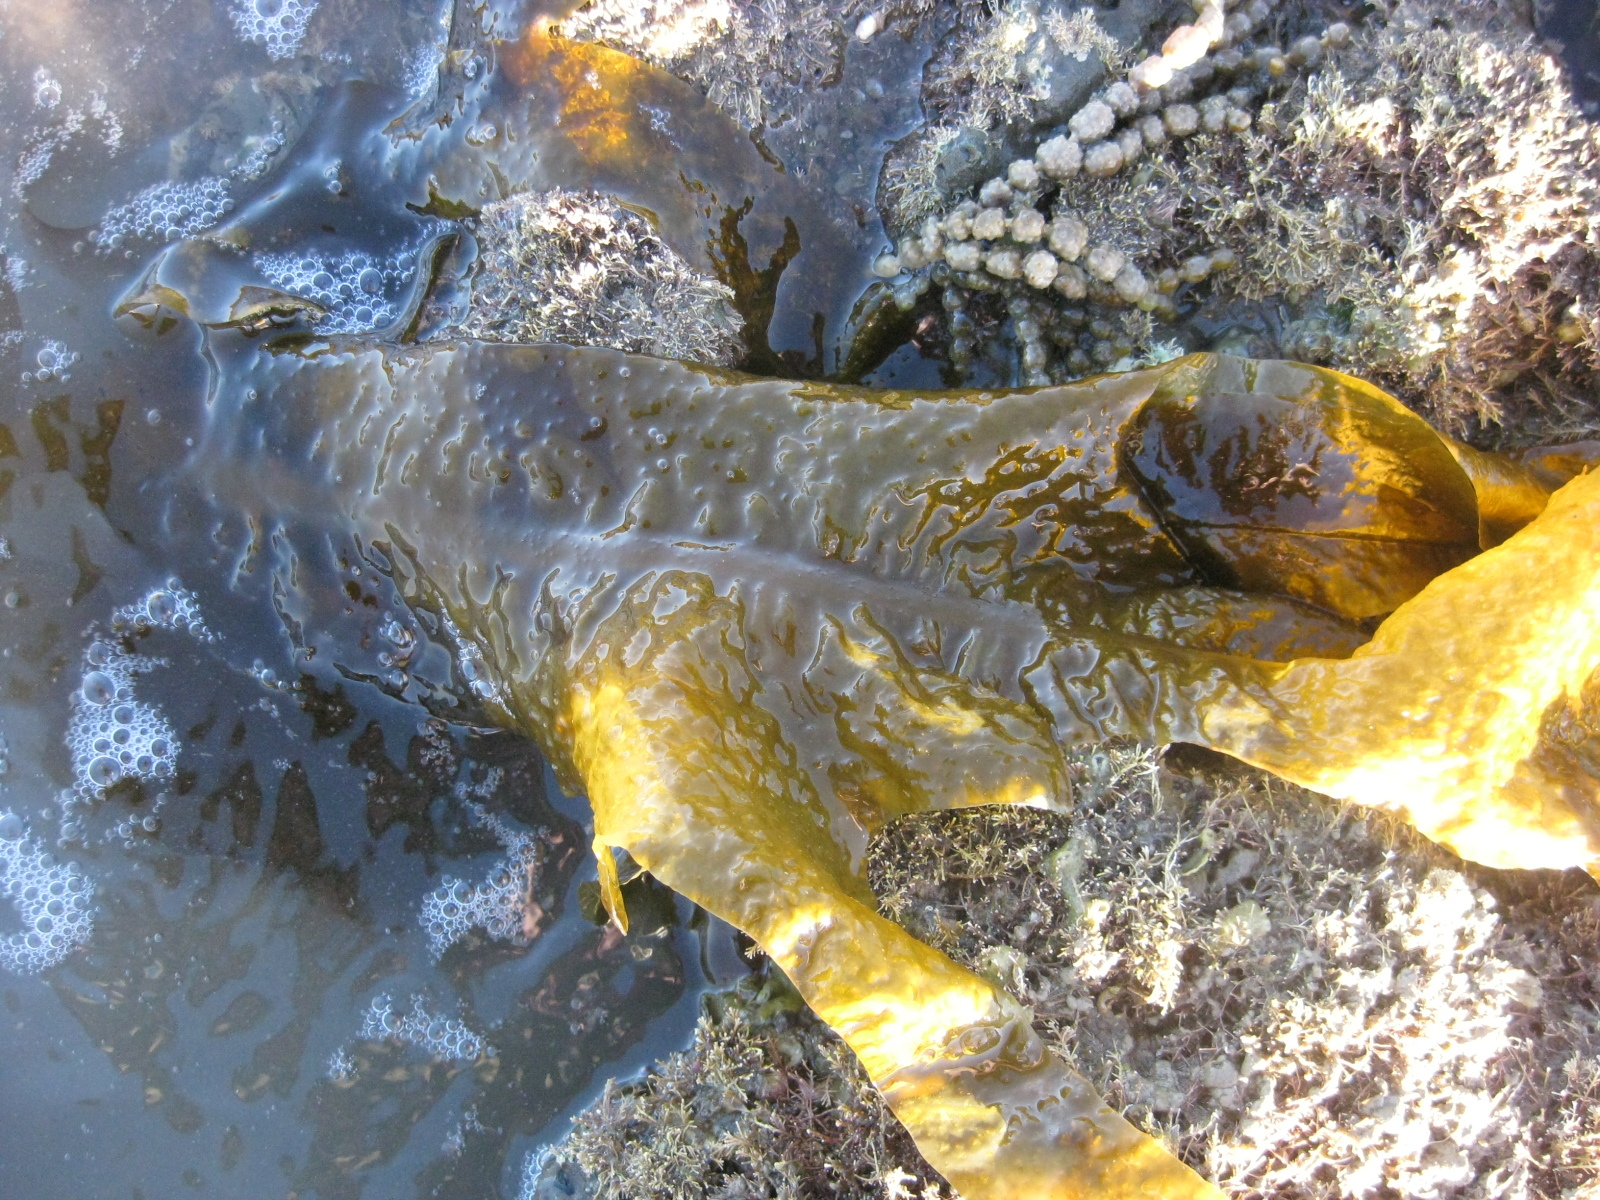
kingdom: Chromista
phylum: Ochrophyta
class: Phaeophyceae
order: Laminariales
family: Alariaceae
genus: Undaria
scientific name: Undaria pinnatifida
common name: Asian kelp
